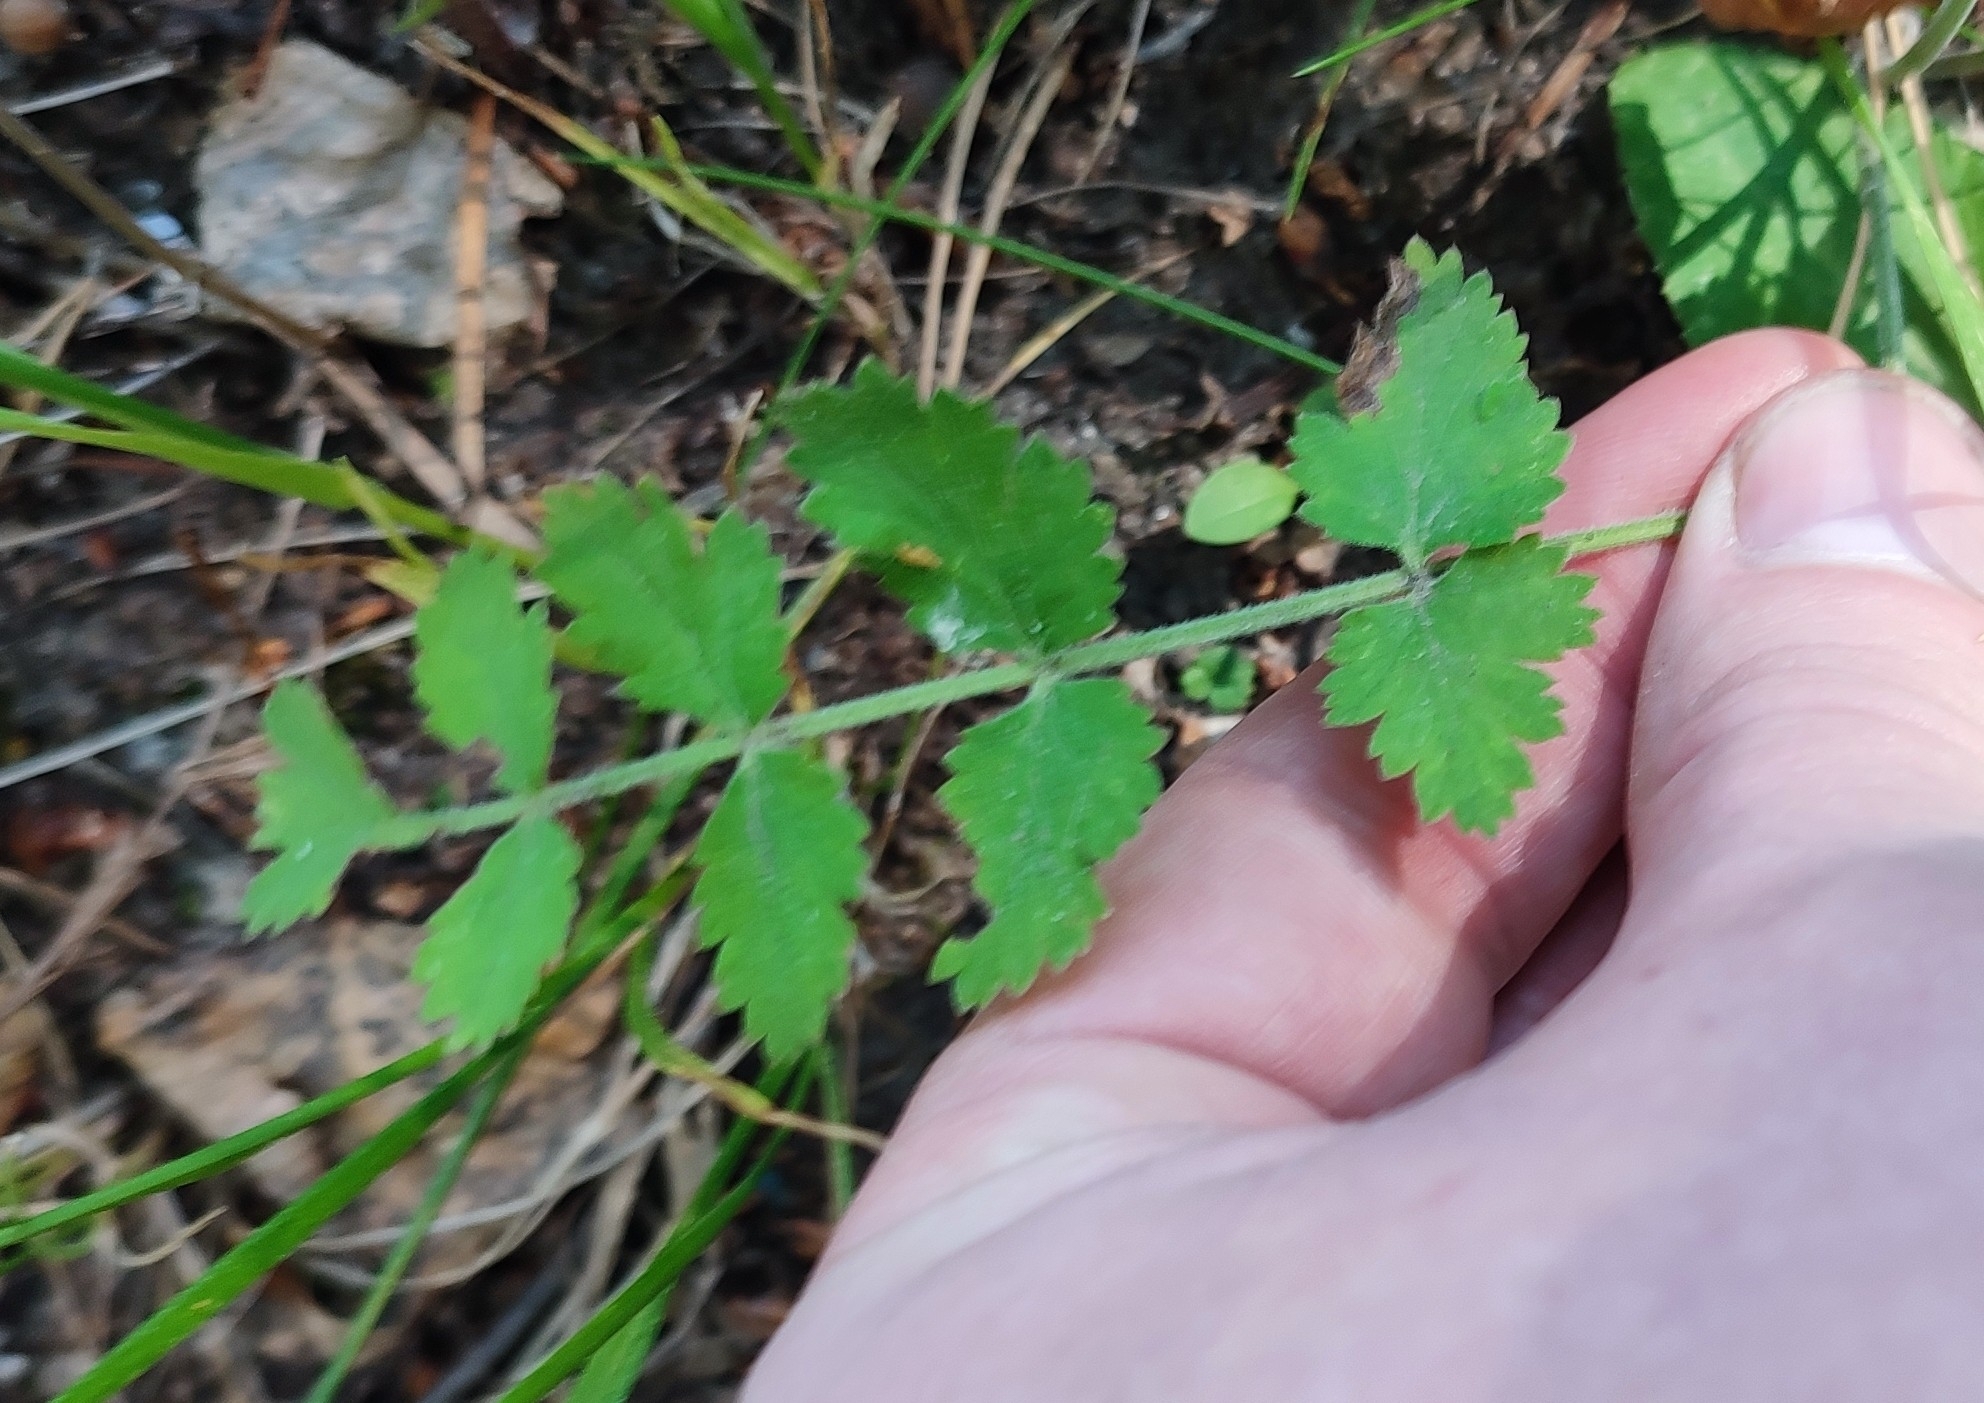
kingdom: Plantae
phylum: Tracheophyta
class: Magnoliopsida
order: Apiales
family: Apiaceae
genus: Pimpinella
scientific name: Pimpinella saxifraga
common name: Burnet-saxifrage
